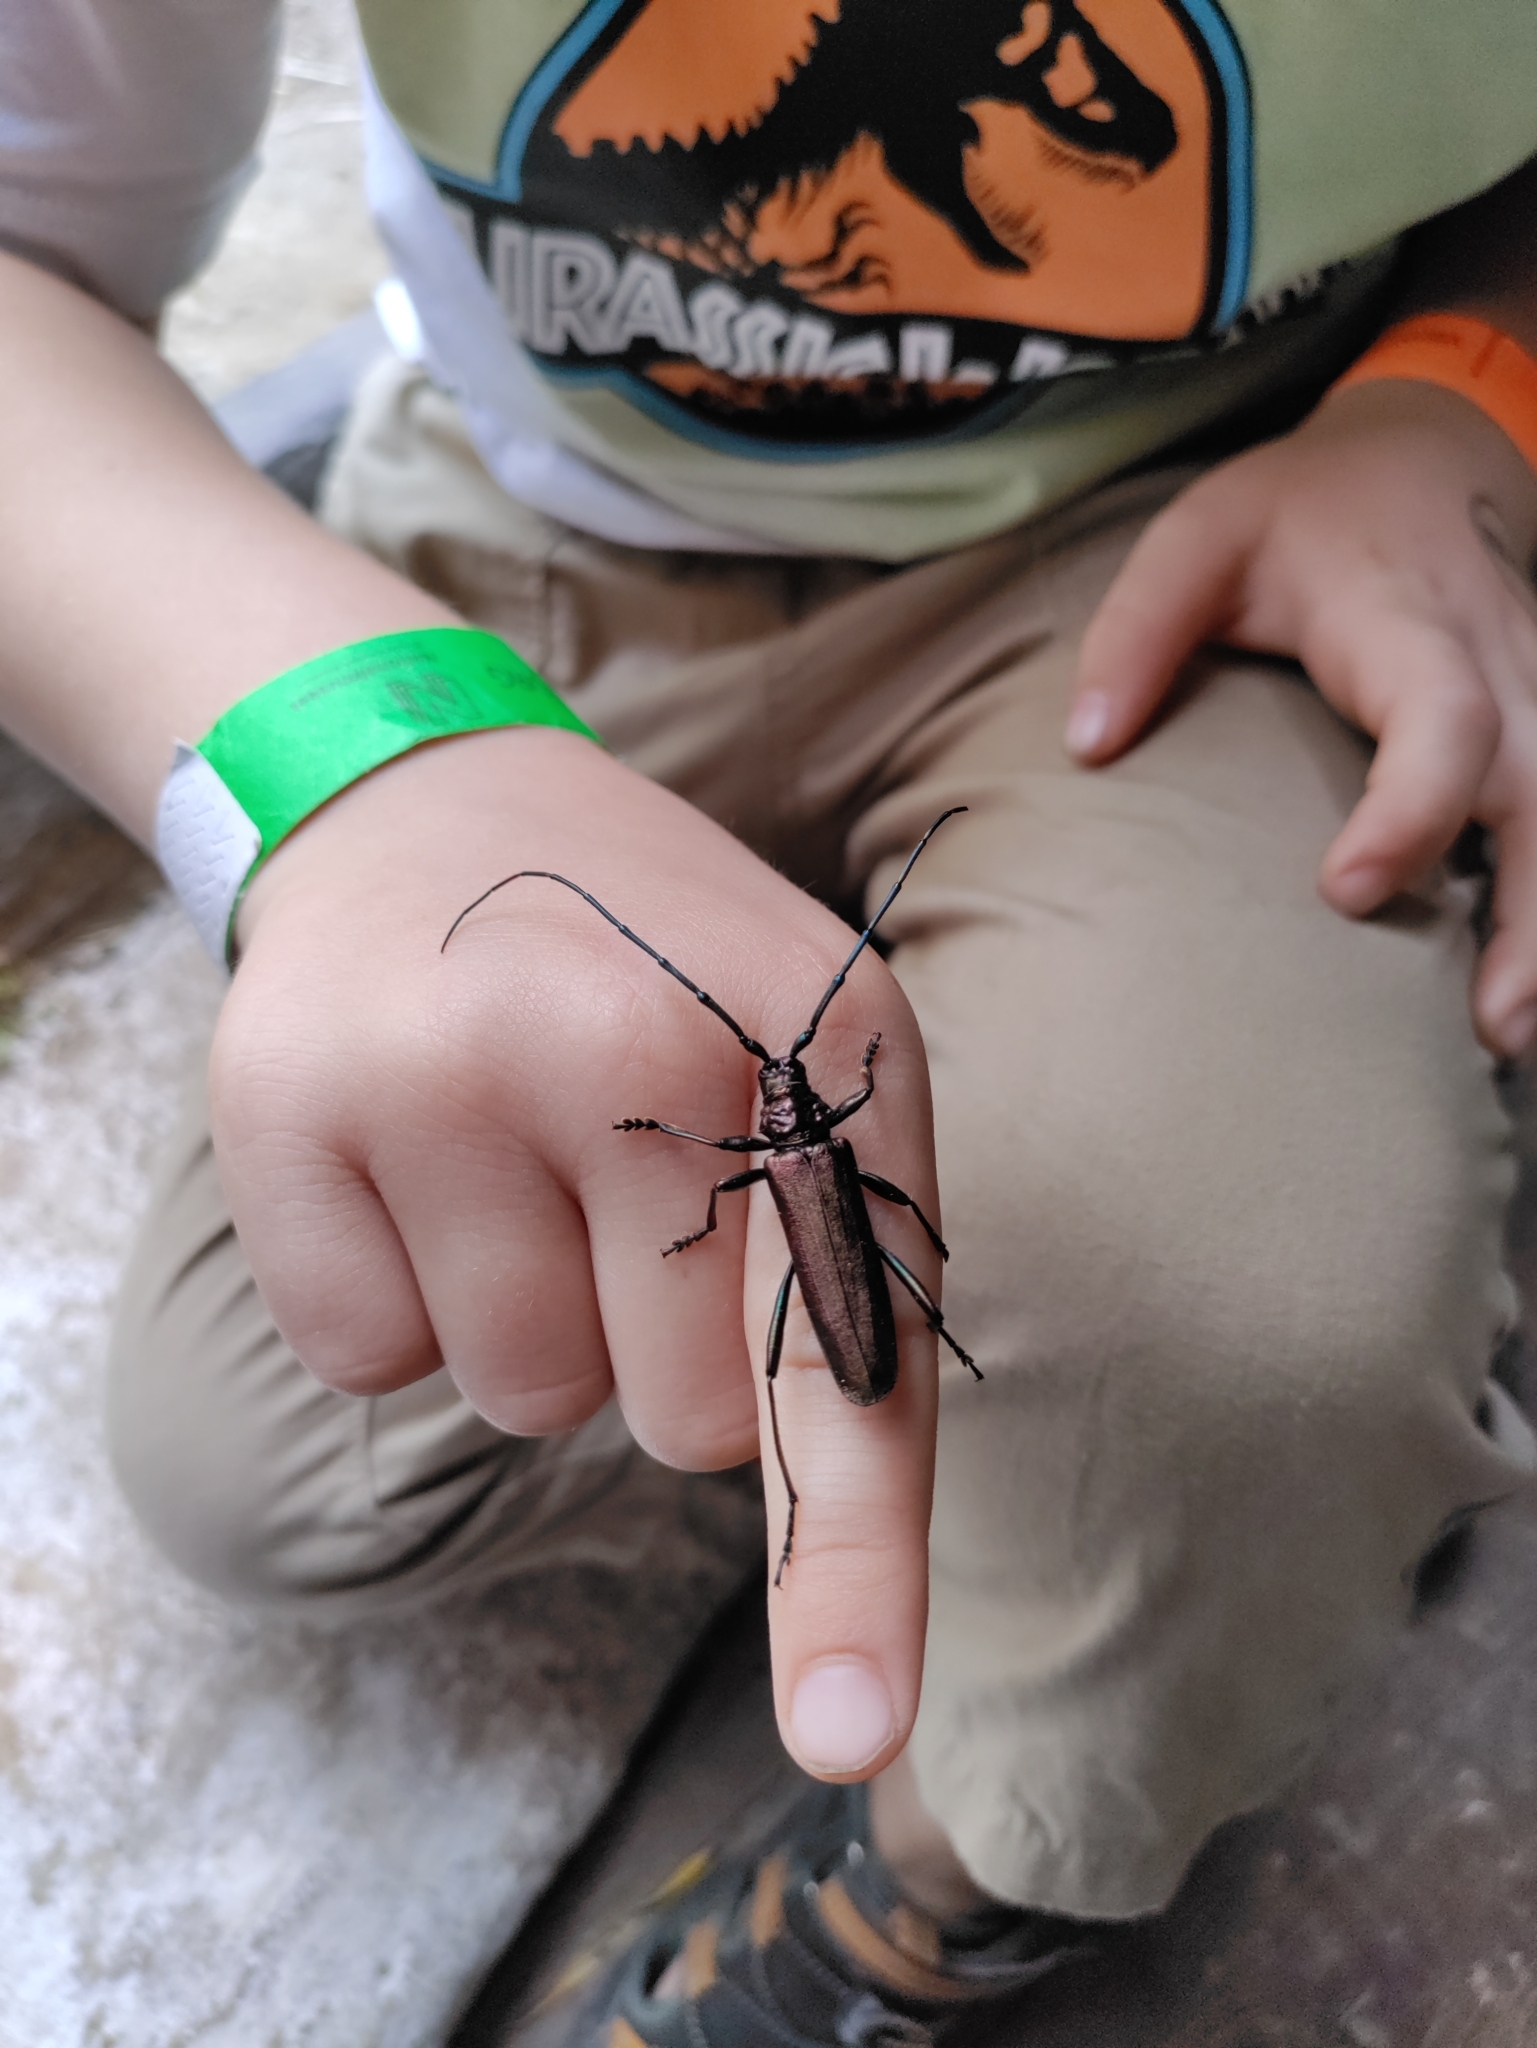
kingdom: Animalia
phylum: Arthropoda
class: Insecta
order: Coleoptera
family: Cerambycidae
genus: Aromia
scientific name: Aromia moschata
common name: Musk beetle
